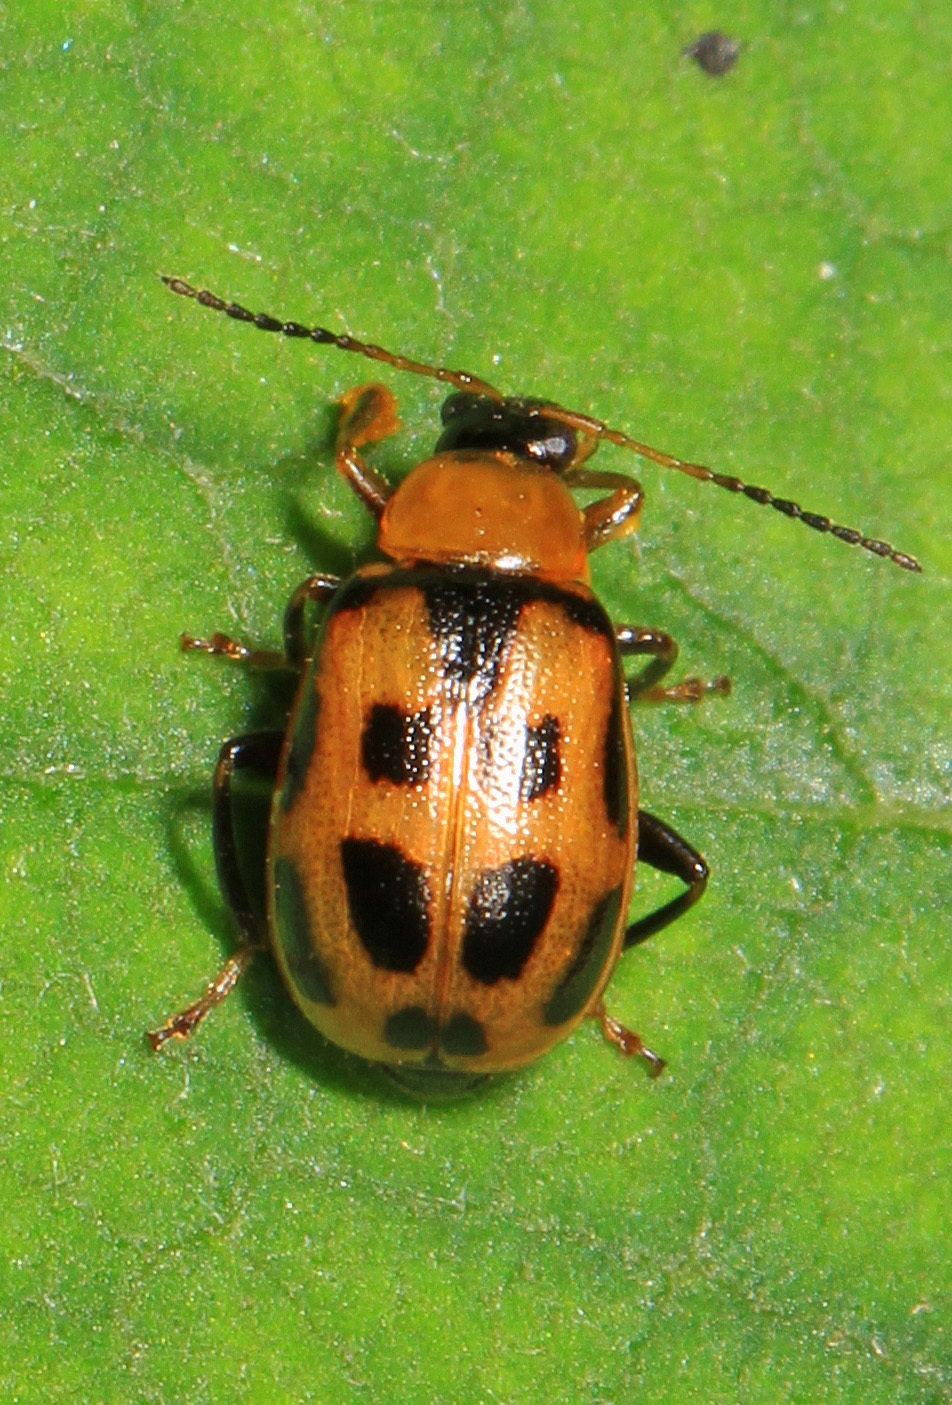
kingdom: Animalia
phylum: Arthropoda
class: Insecta
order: Coleoptera
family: Chrysomelidae
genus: Cerotoma
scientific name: Cerotoma trifurcata
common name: Bean leaf beetle
